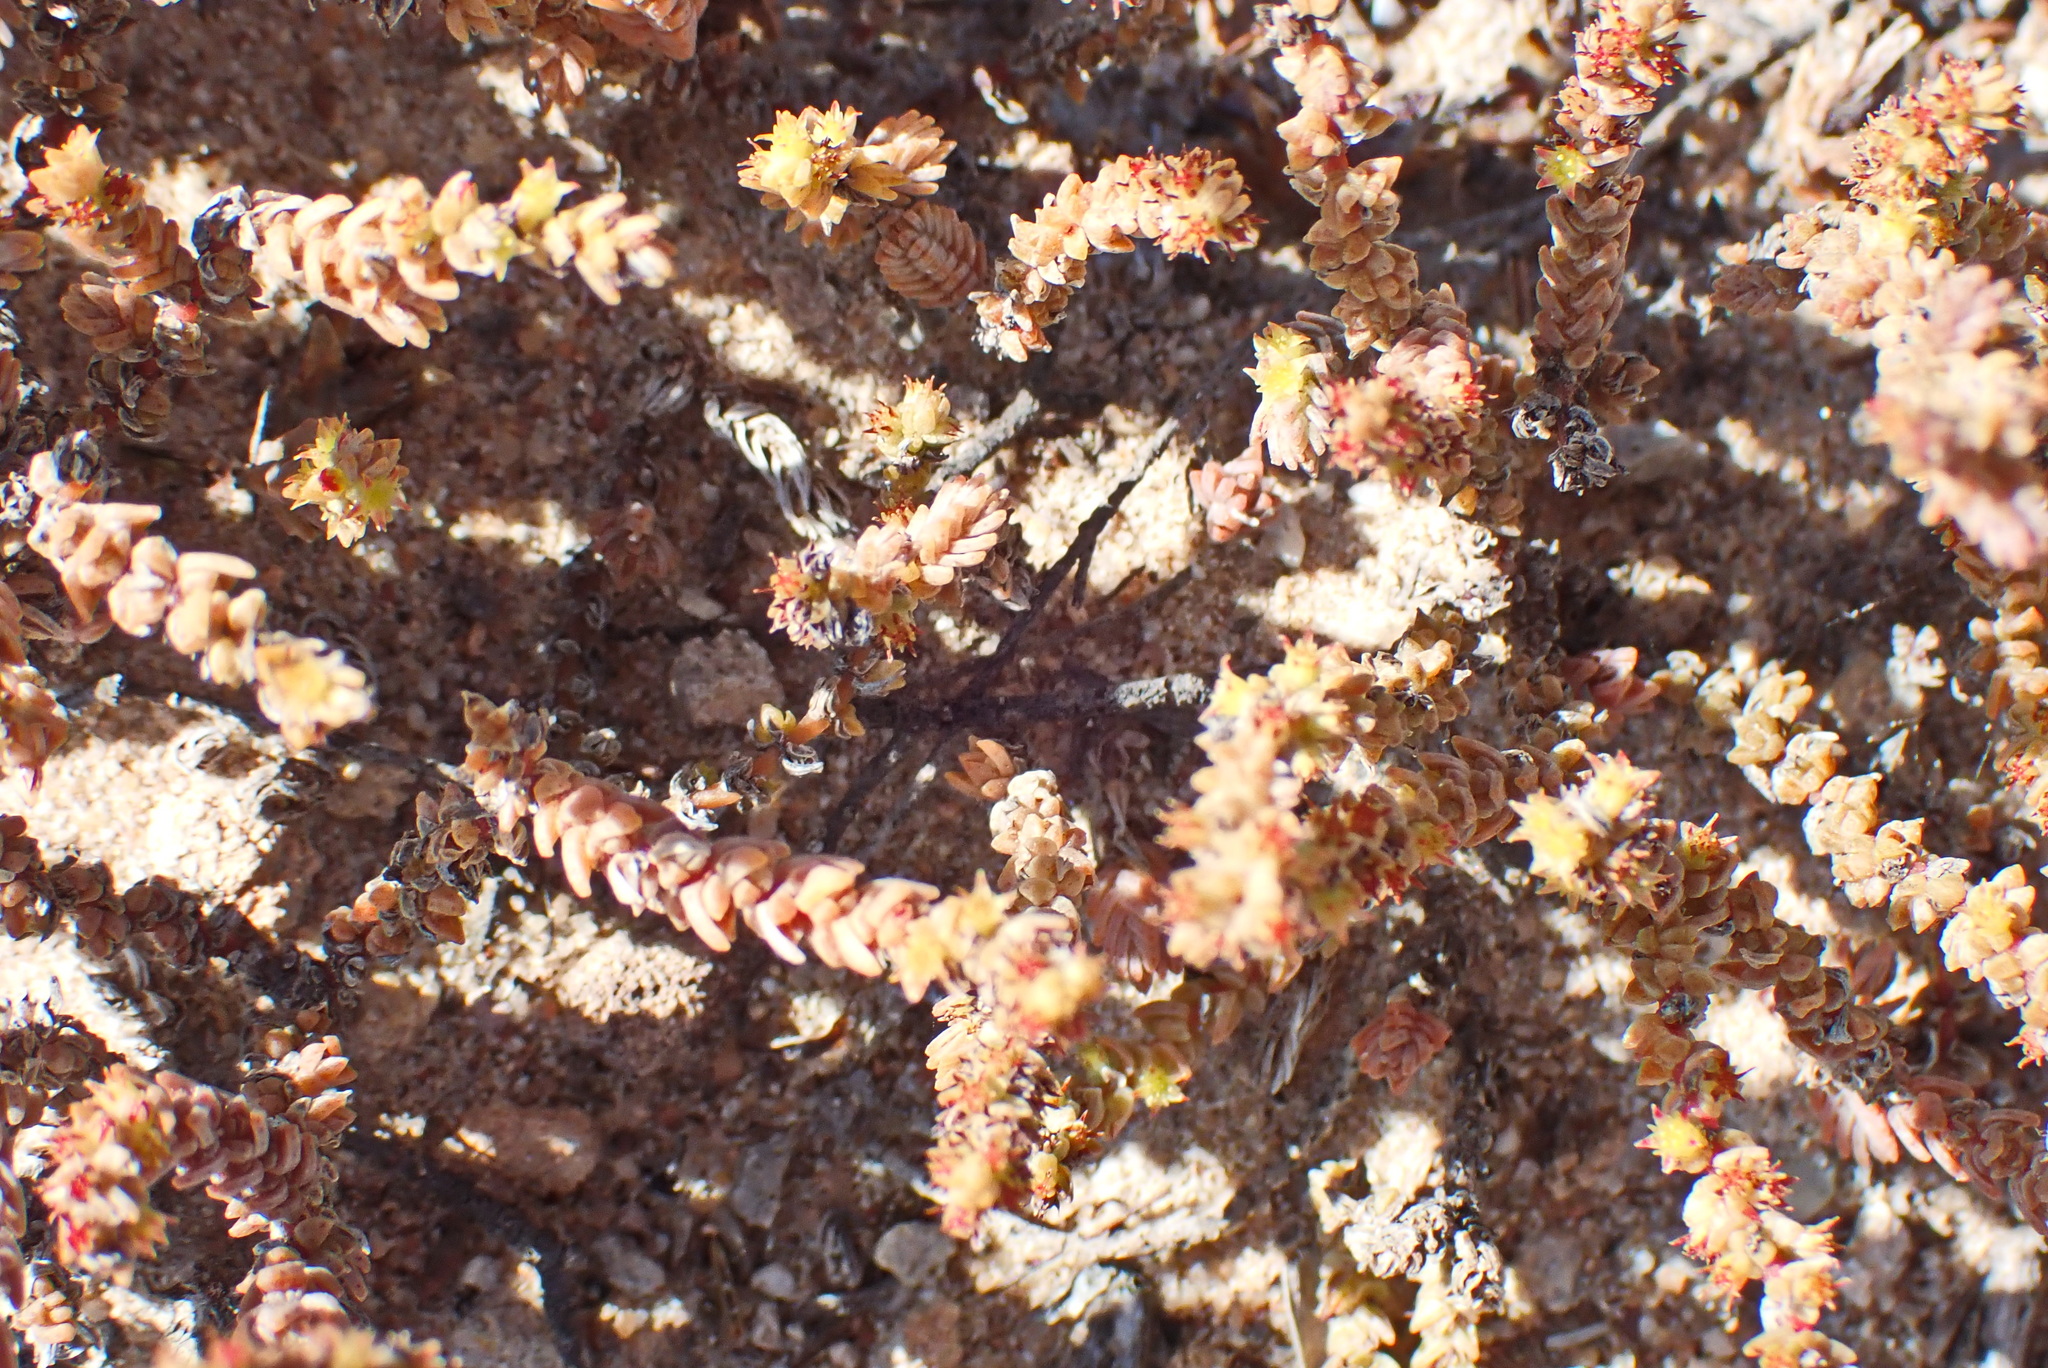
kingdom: Plantae
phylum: Tracheophyta
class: Magnoliopsida
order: Saxifragales
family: Crassulaceae
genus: Crassula
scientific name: Crassula muscosa
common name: Toy-cypress
